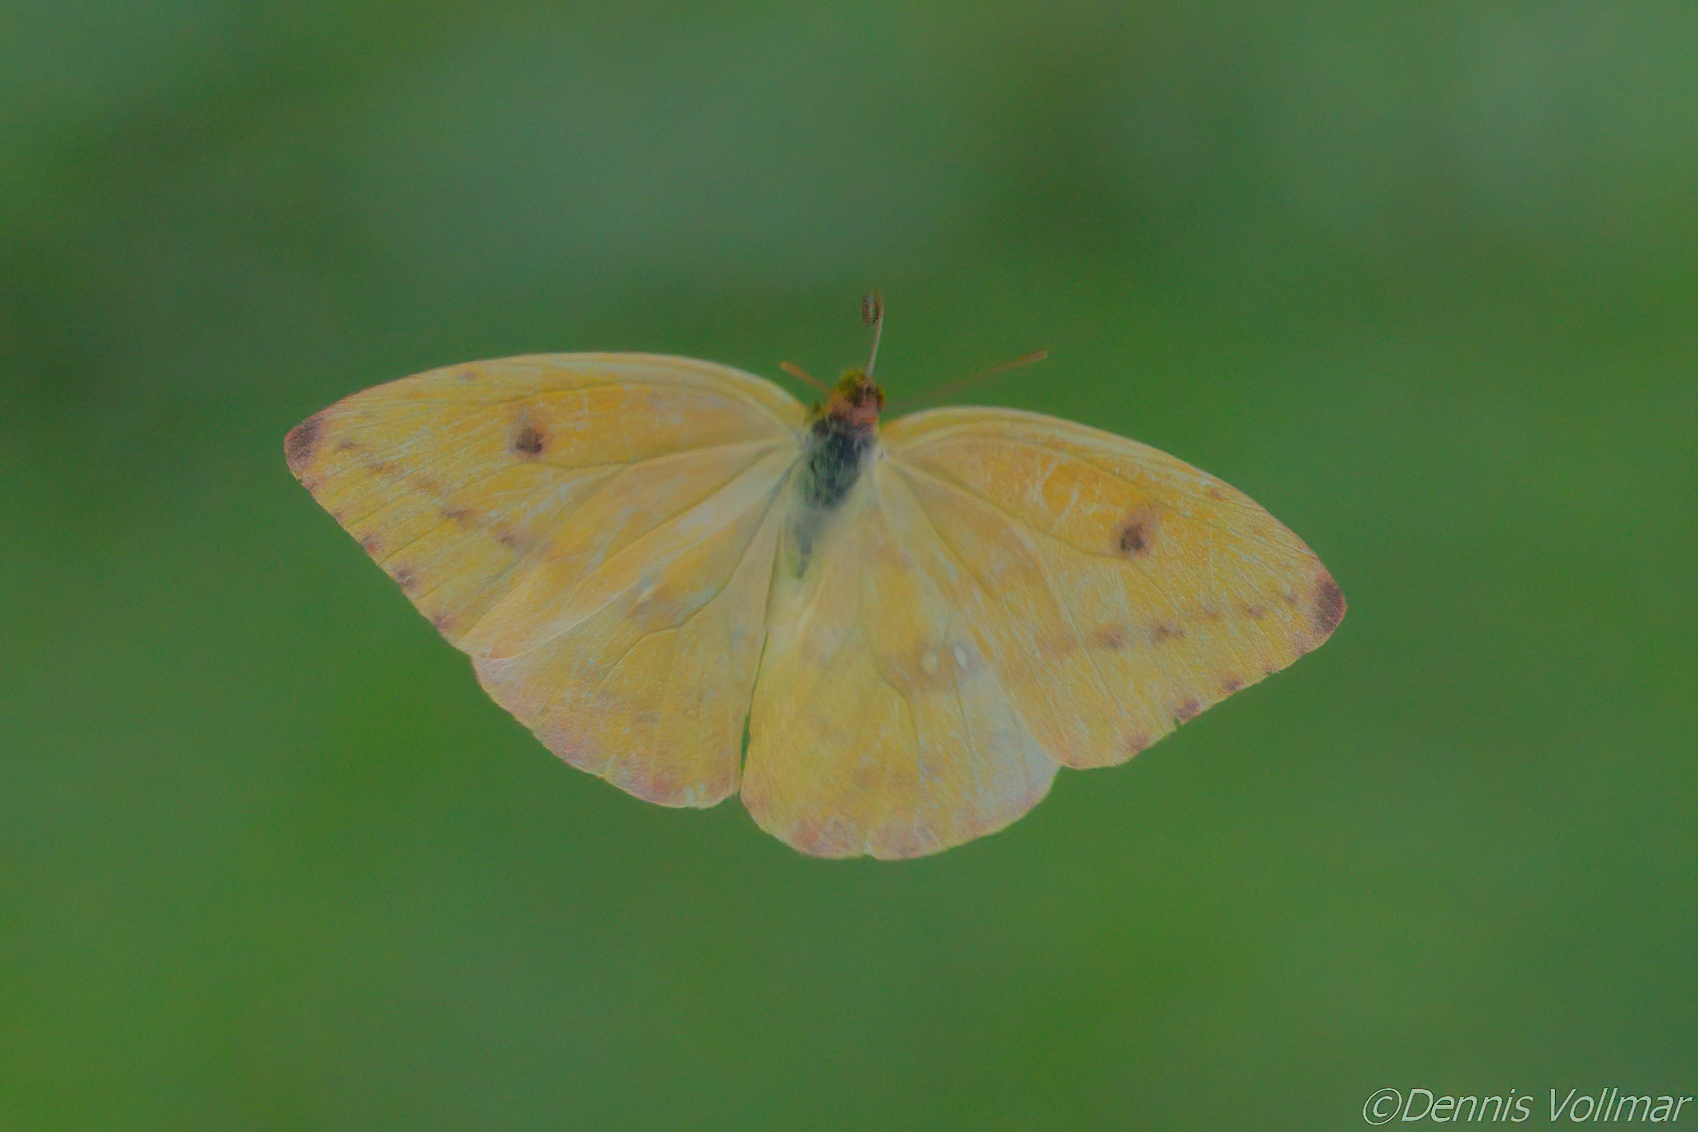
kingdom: Animalia
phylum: Arthropoda
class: Insecta
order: Lepidoptera
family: Pieridae
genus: Phoebis
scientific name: Phoebis agarithe
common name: Large orange sulphur
